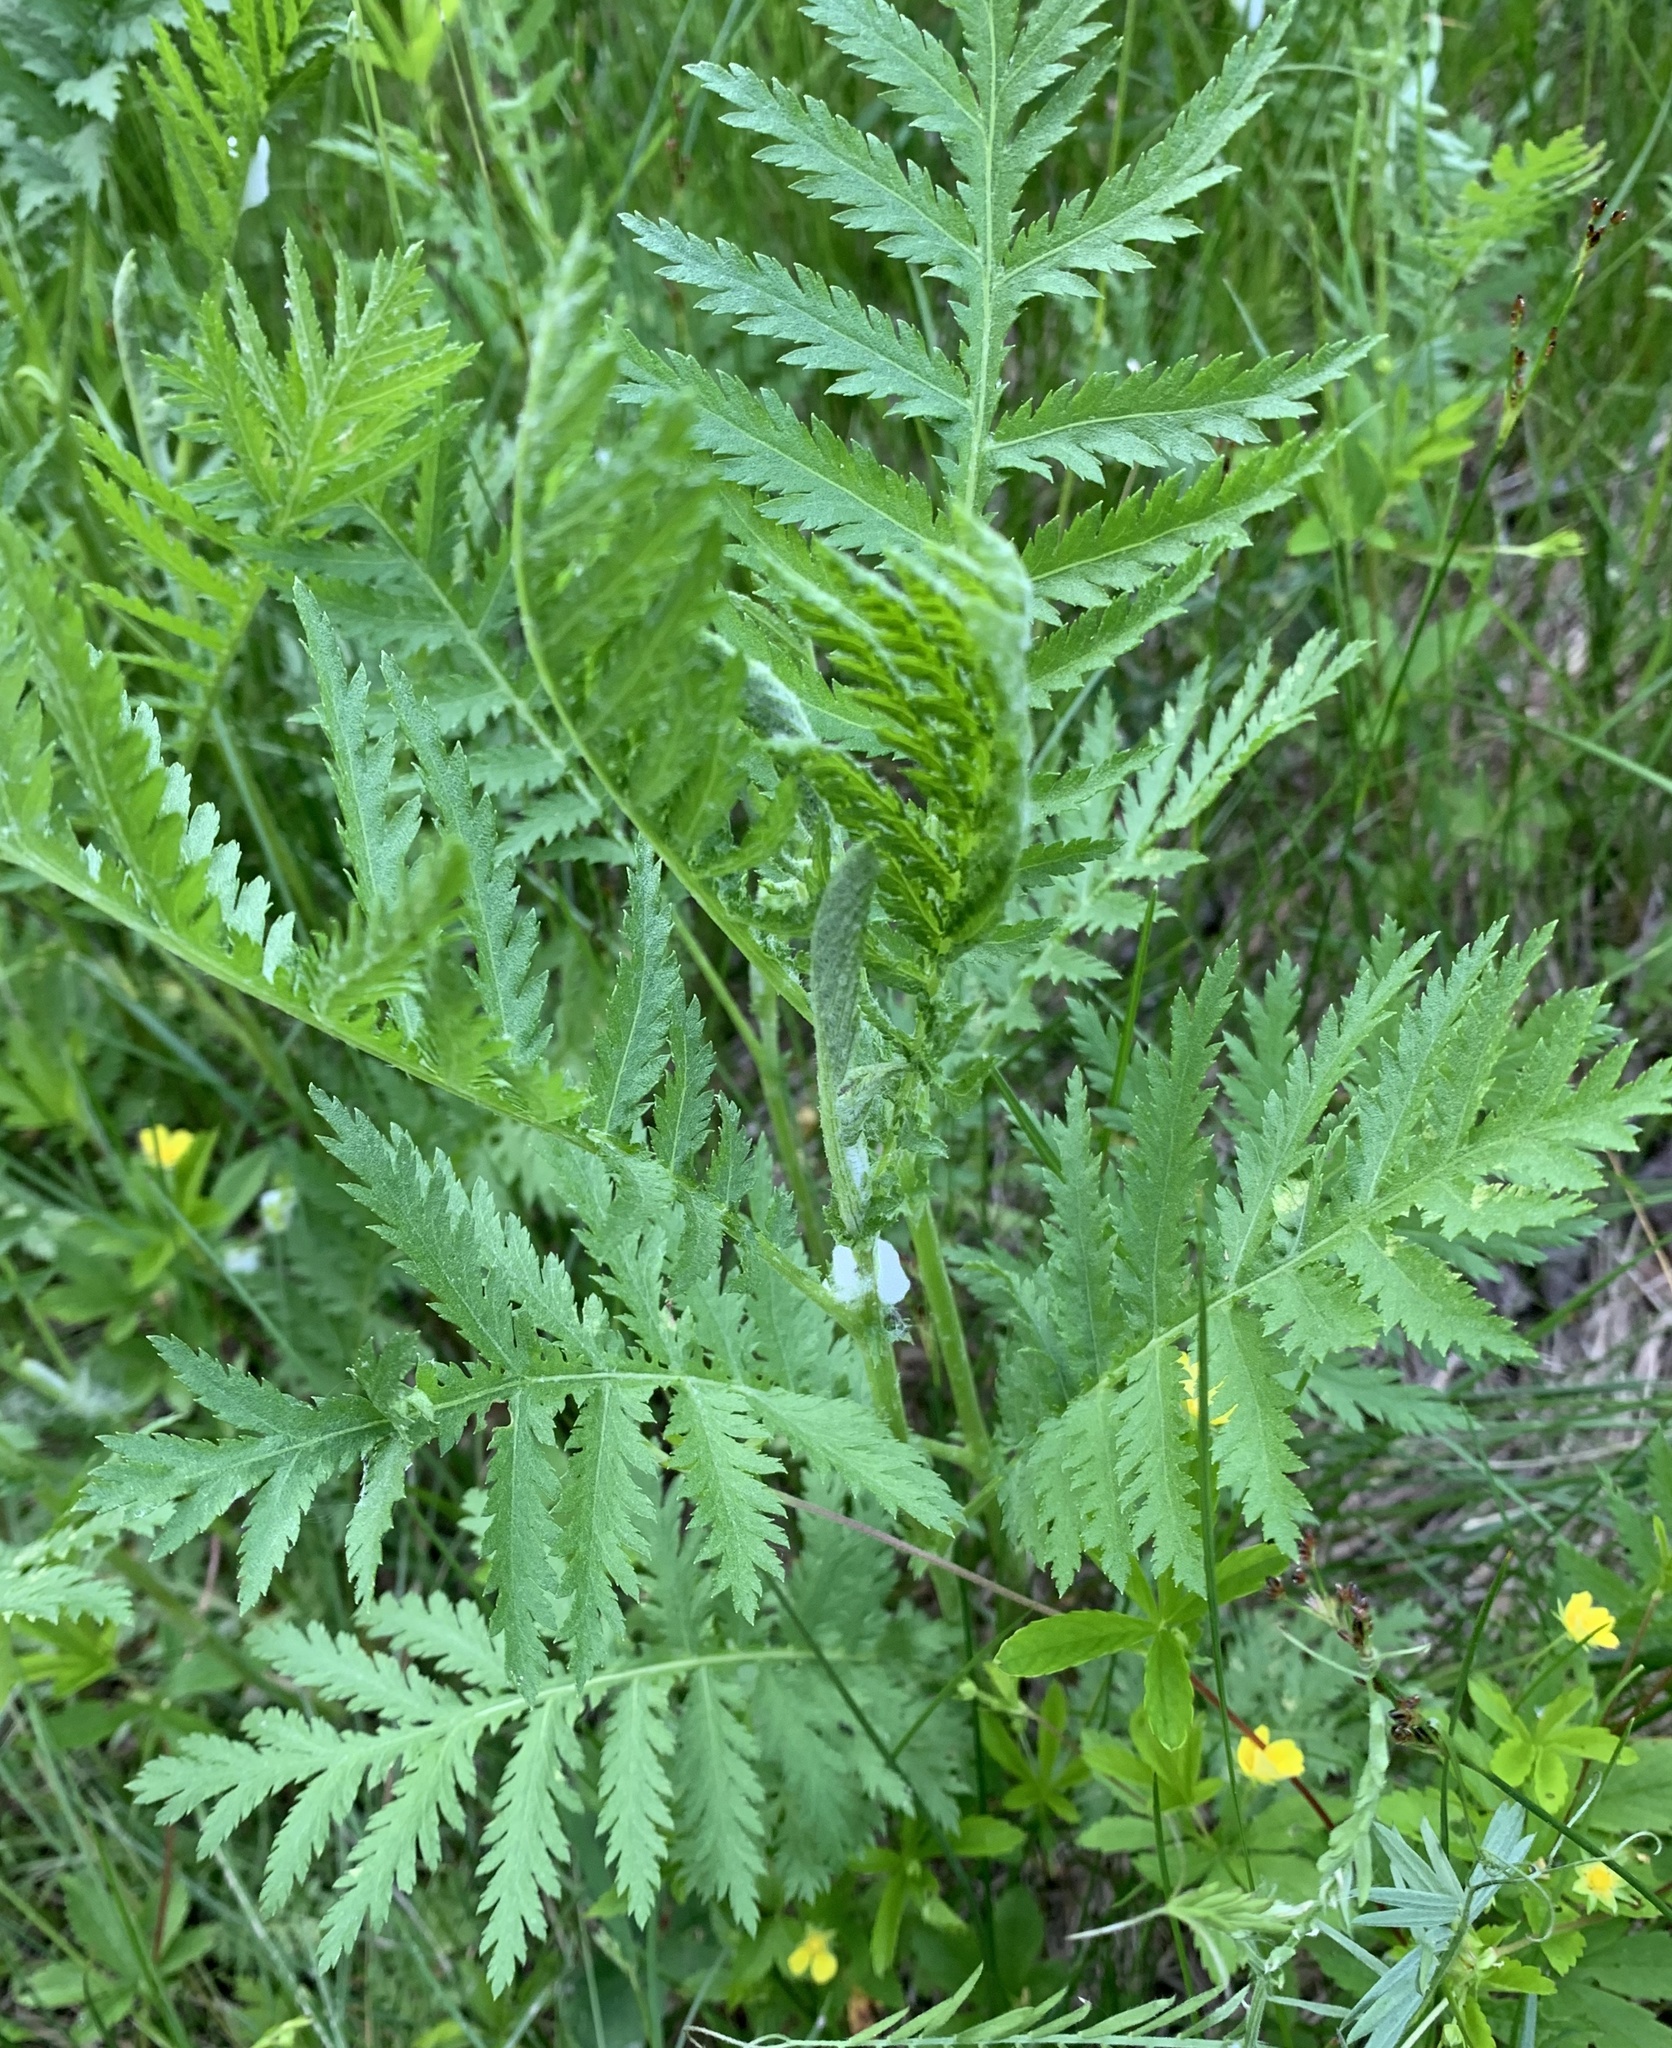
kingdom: Plantae
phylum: Tracheophyta
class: Magnoliopsida
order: Asterales
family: Asteraceae
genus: Tanacetum
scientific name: Tanacetum vulgare
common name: Common tansy
